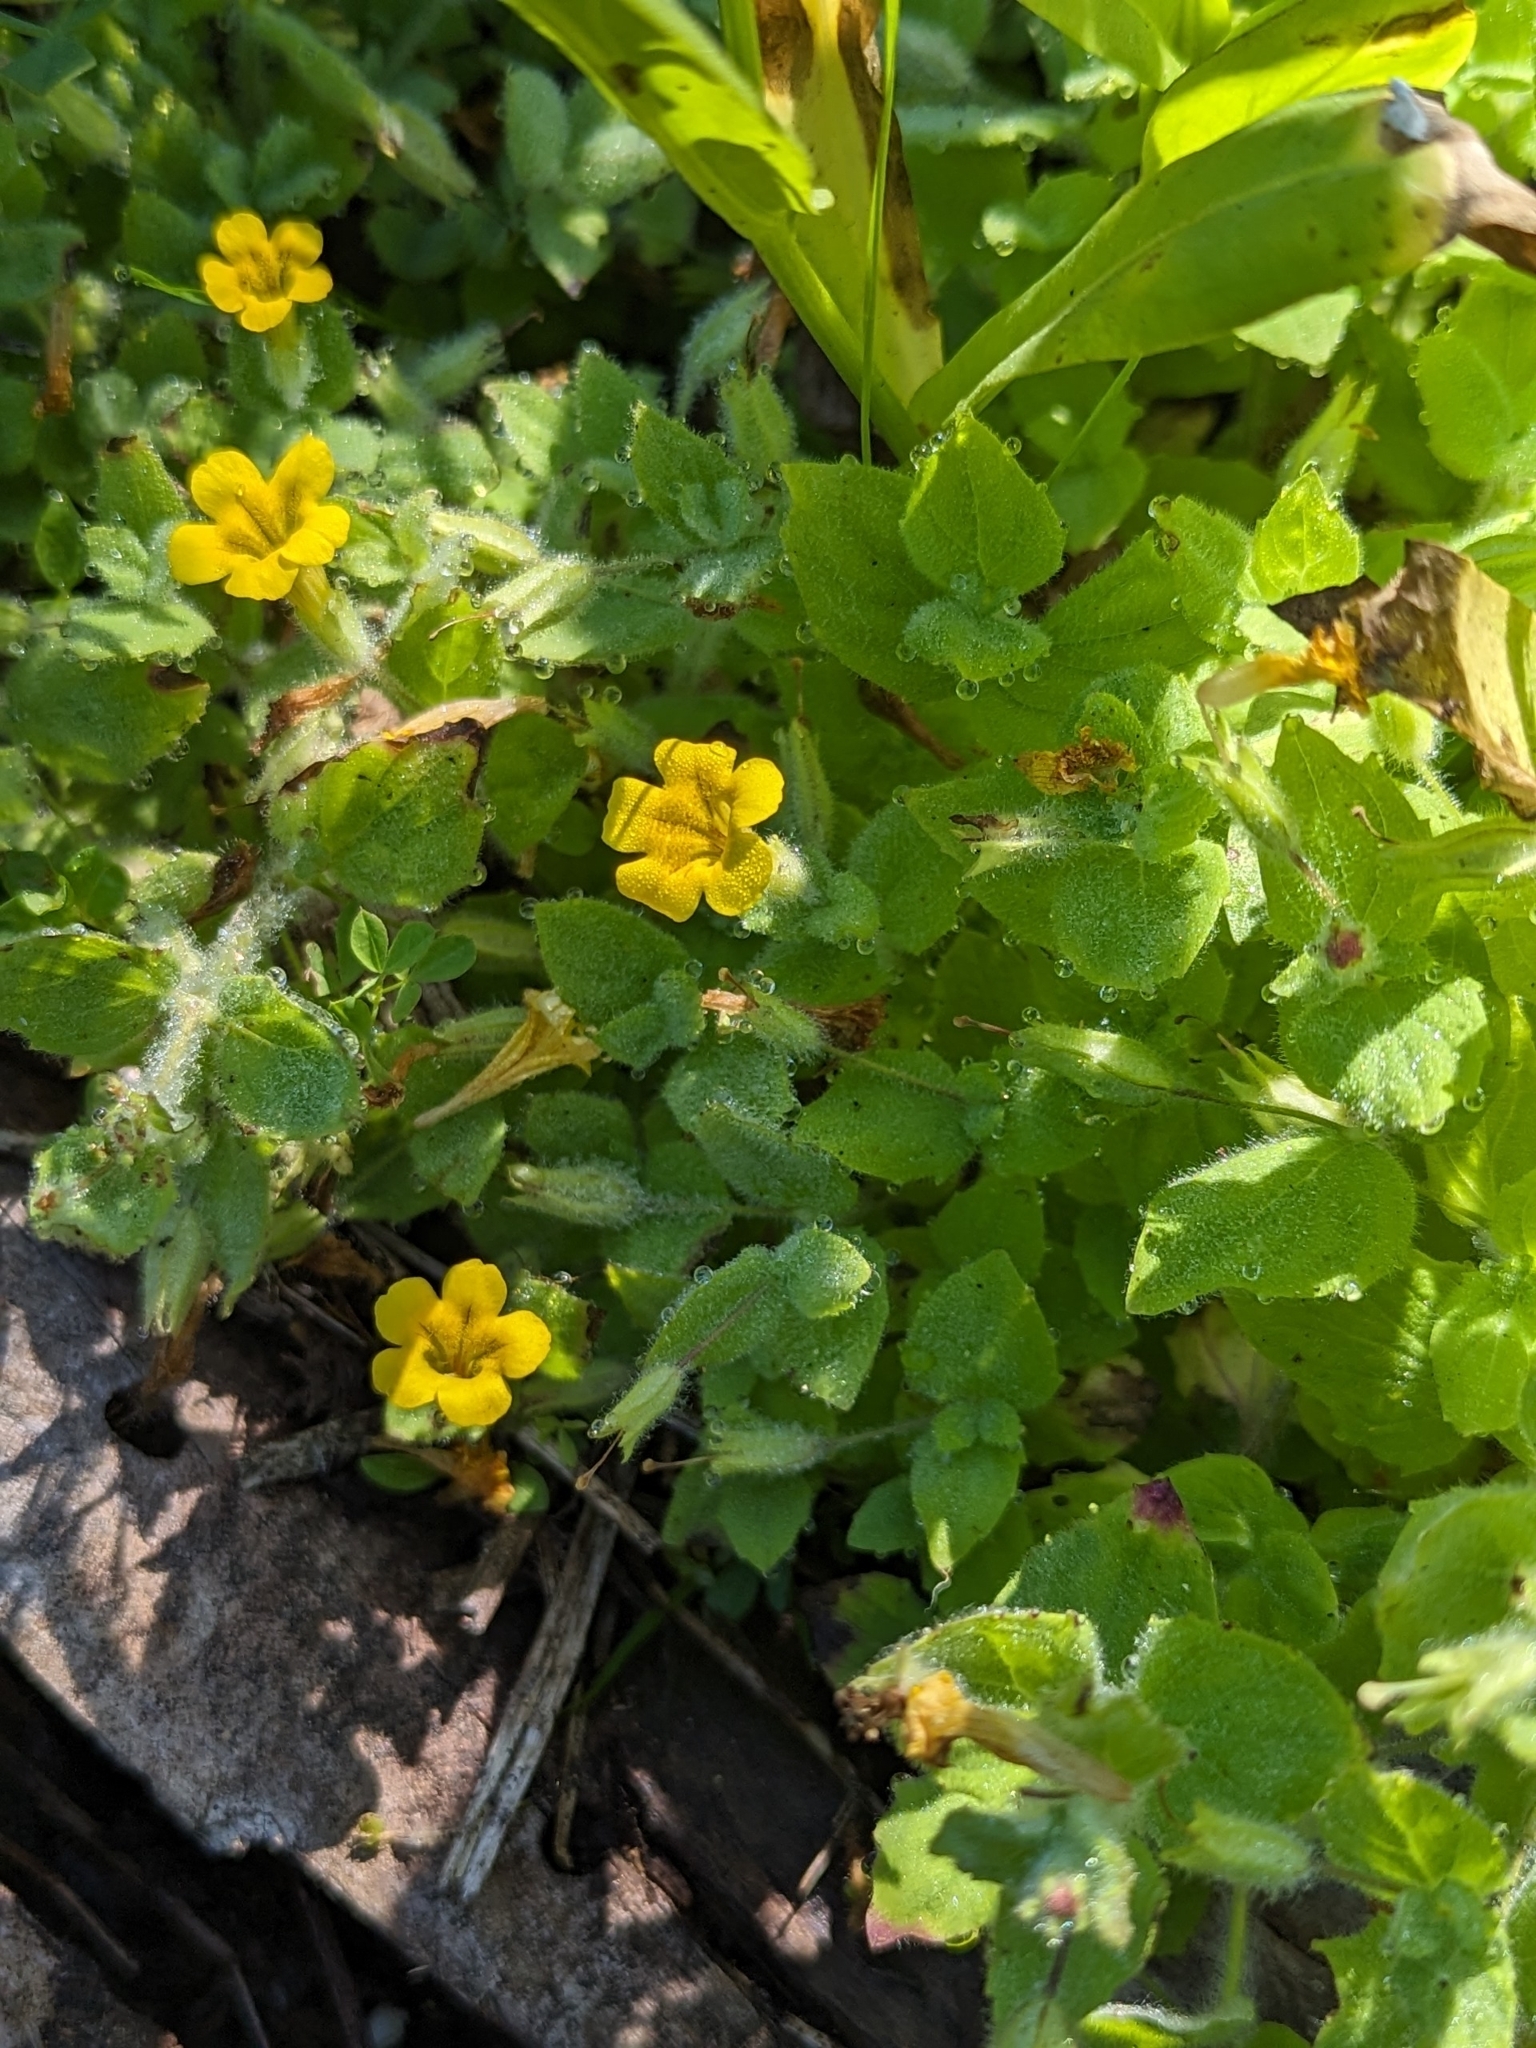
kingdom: Plantae
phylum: Tracheophyta
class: Magnoliopsida
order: Lamiales
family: Phrymaceae
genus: Erythranthe
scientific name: Erythranthe moschata
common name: Muskflower
